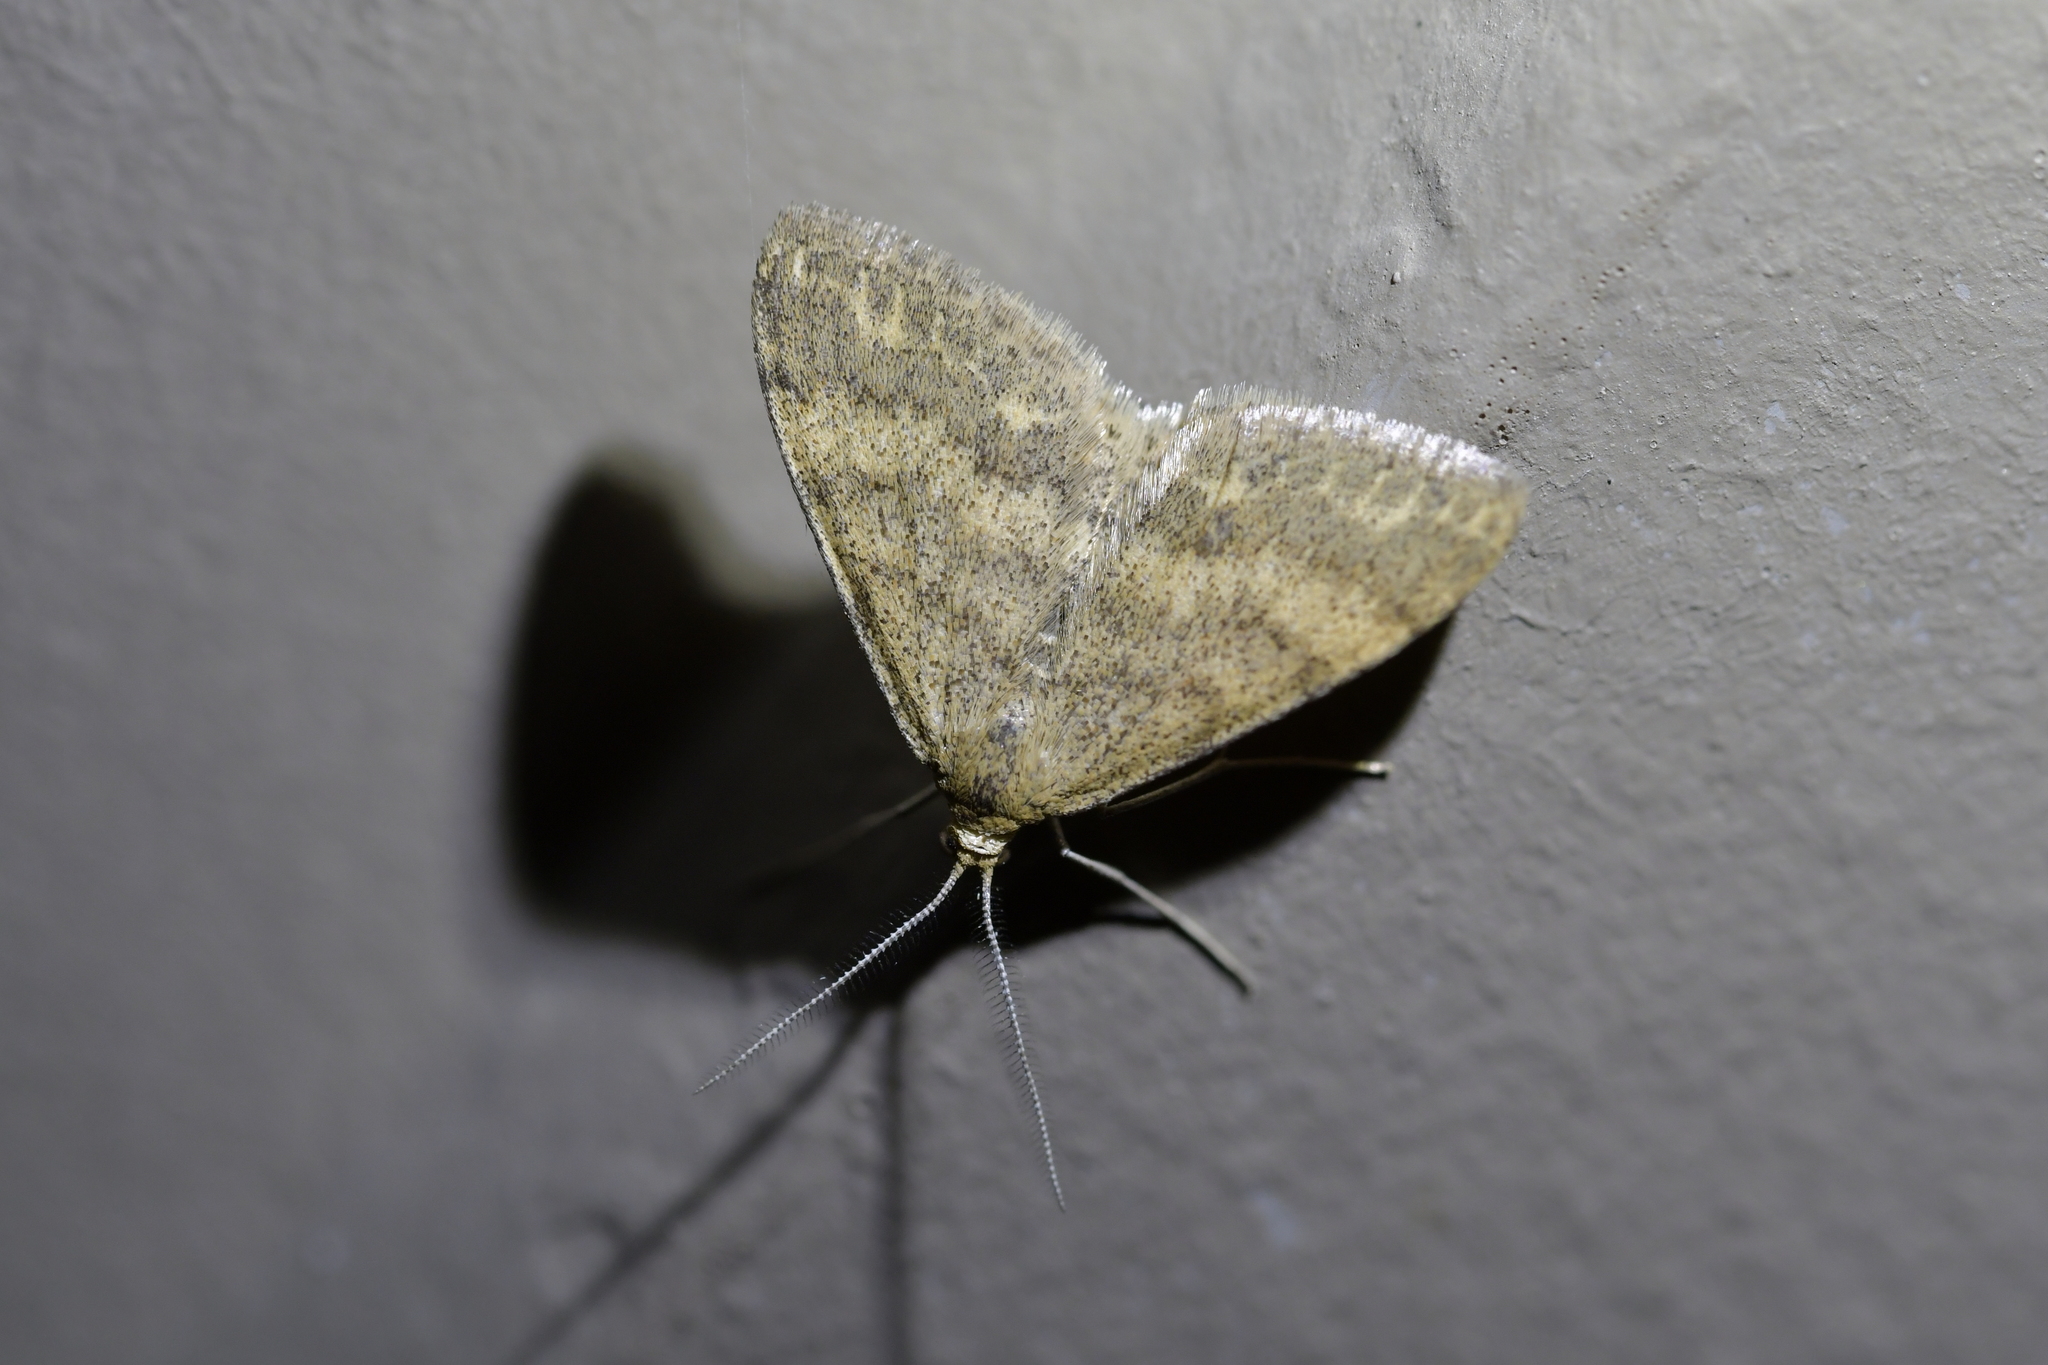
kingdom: Animalia
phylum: Arthropoda
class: Insecta
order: Lepidoptera
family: Geometridae
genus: Scopula
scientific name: Scopula rubraria
